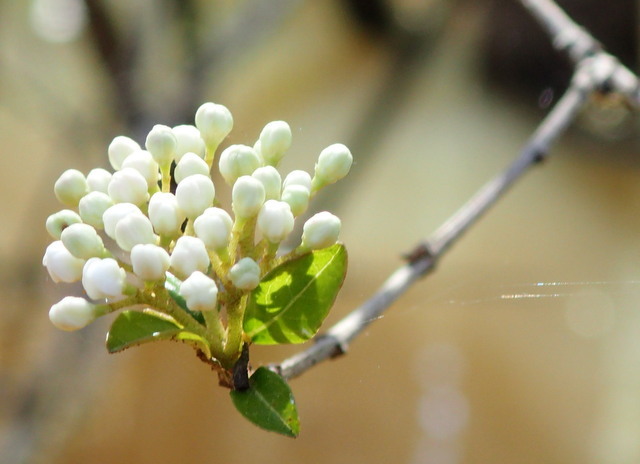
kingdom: Plantae
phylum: Tracheophyta
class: Magnoliopsida
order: Dipsacales
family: Viburnaceae
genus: Viburnum
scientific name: Viburnum obovatum
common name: Walter's viburnum
